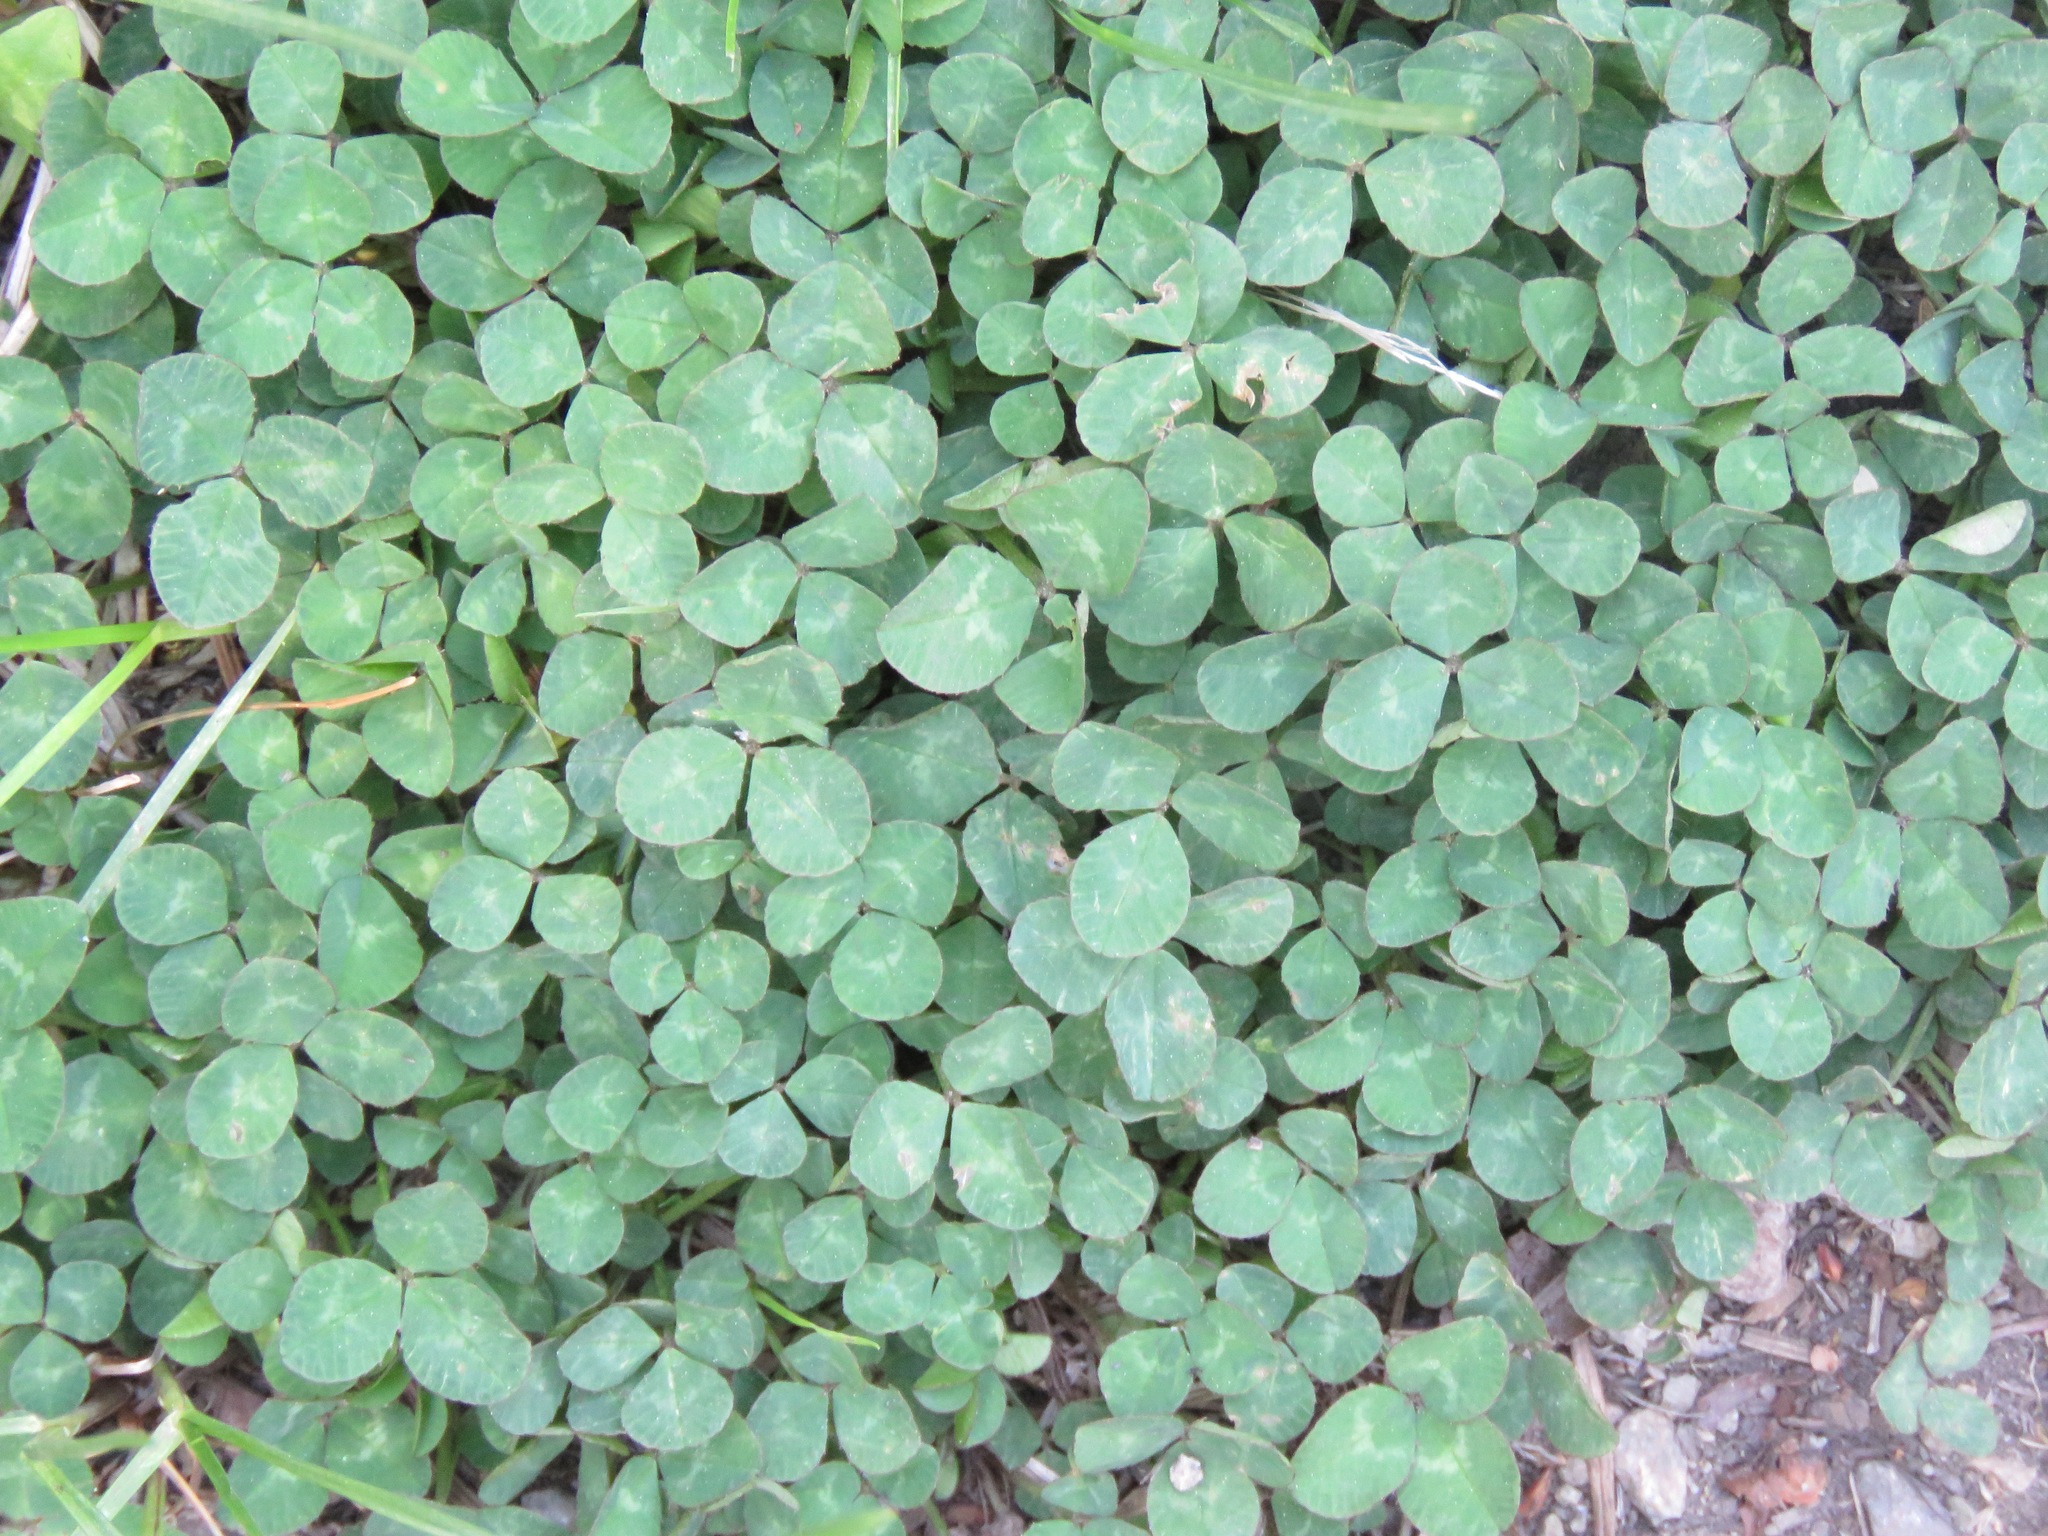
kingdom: Plantae
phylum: Tracheophyta
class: Magnoliopsida
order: Fabales
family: Fabaceae
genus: Trifolium
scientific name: Trifolium repens
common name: White clover
